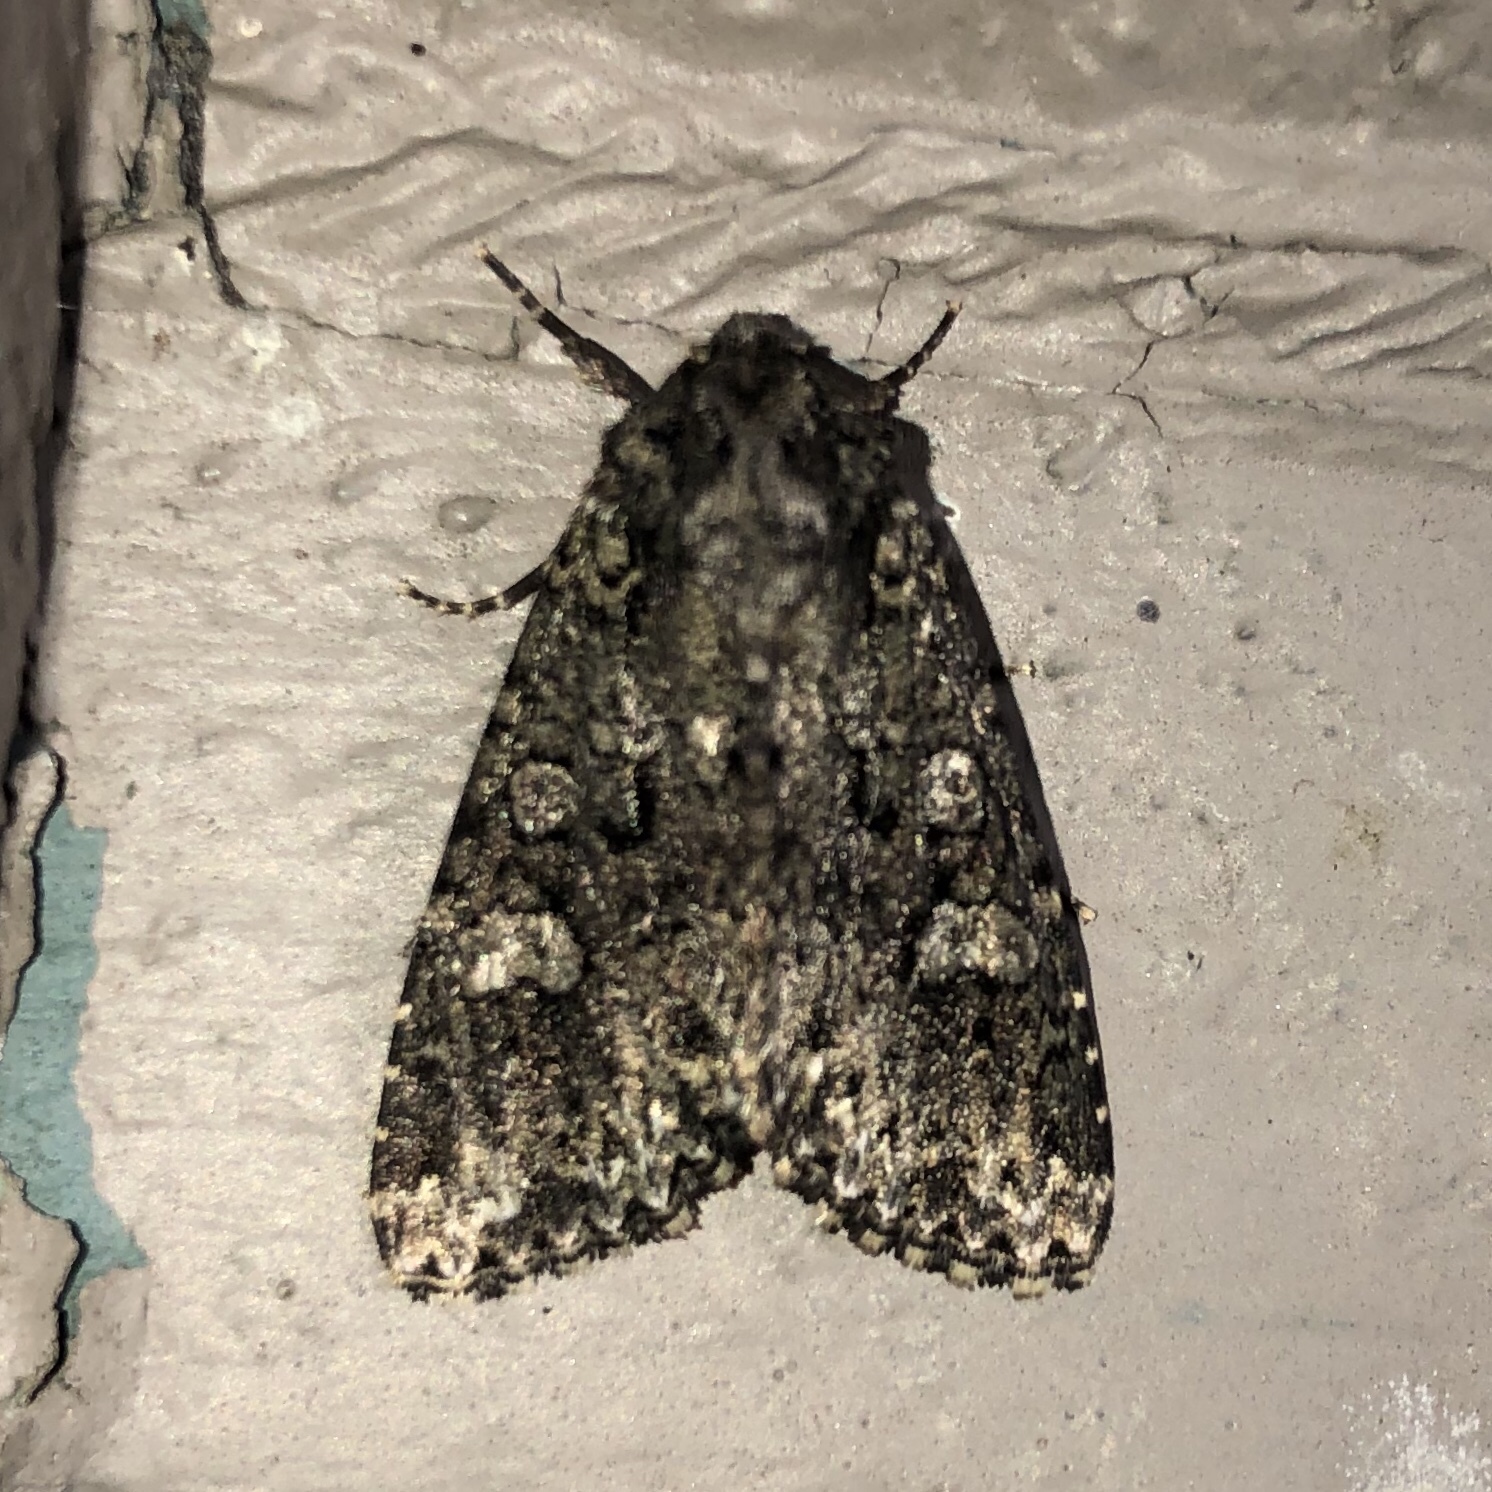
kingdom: Animalia
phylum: Arthropoda
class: Insecta
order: Lepidoptera
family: Noctuidae
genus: Melanchra
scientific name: Melanchra adjuncta
